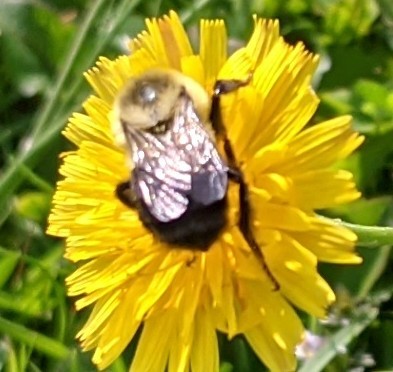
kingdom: Animalia
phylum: Arthropoda
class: Insecta
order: Hymenoptera
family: Apidae
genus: Bombus
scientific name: Bombus impatiens
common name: Common eastern bumble bee
